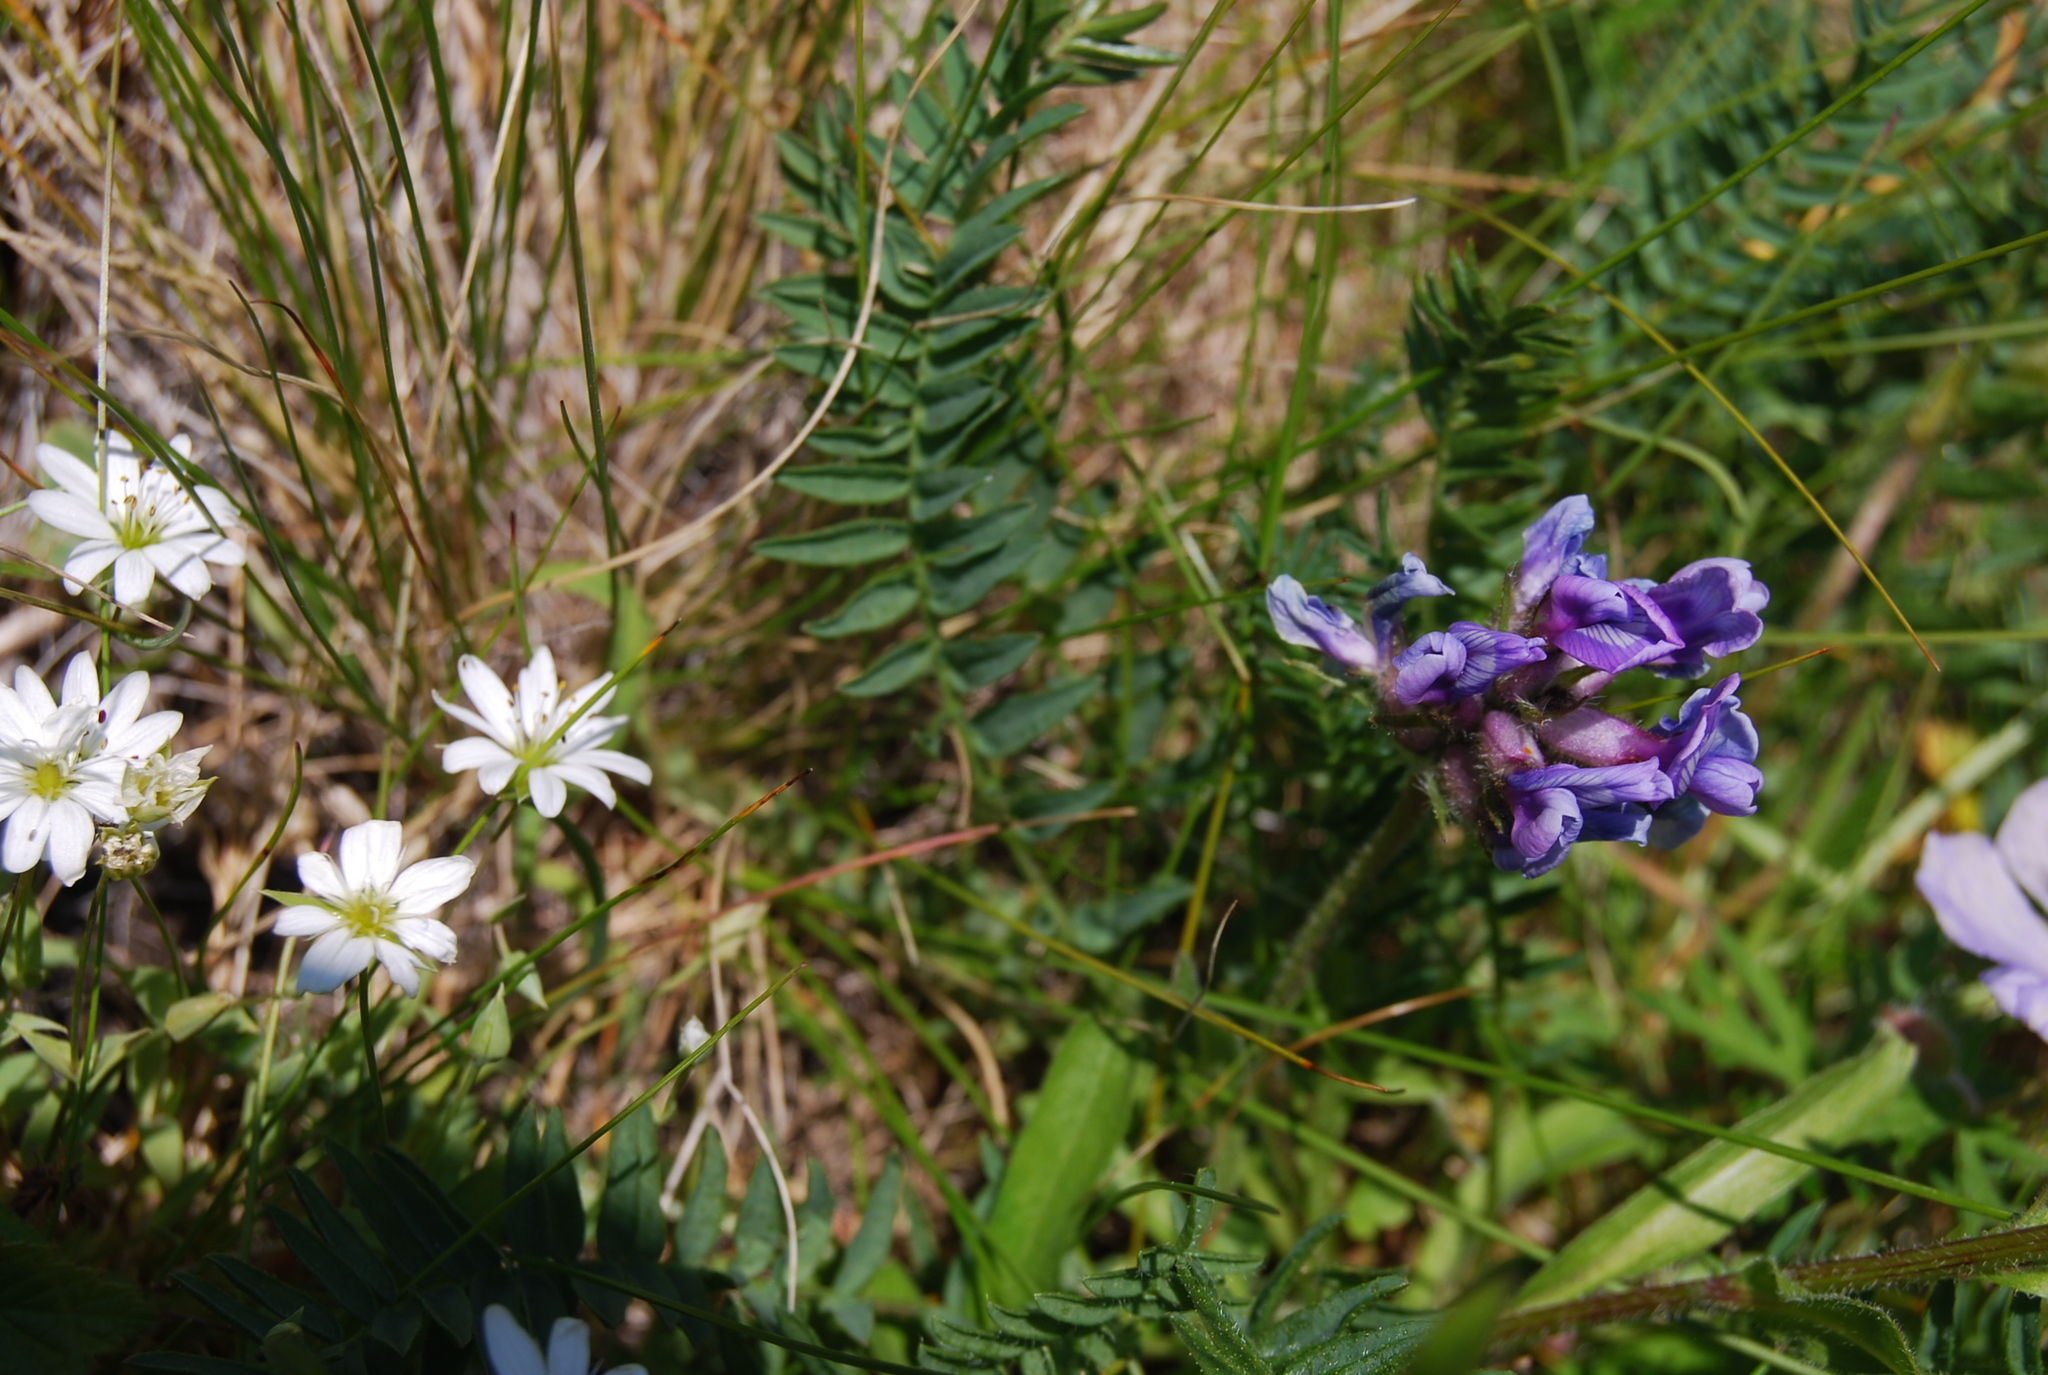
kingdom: Plantae
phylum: Tracheophyta
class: Magnoliopsida
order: Fabales
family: Fabaceae
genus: Oxytropis
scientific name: Oxytropis middendorffii
